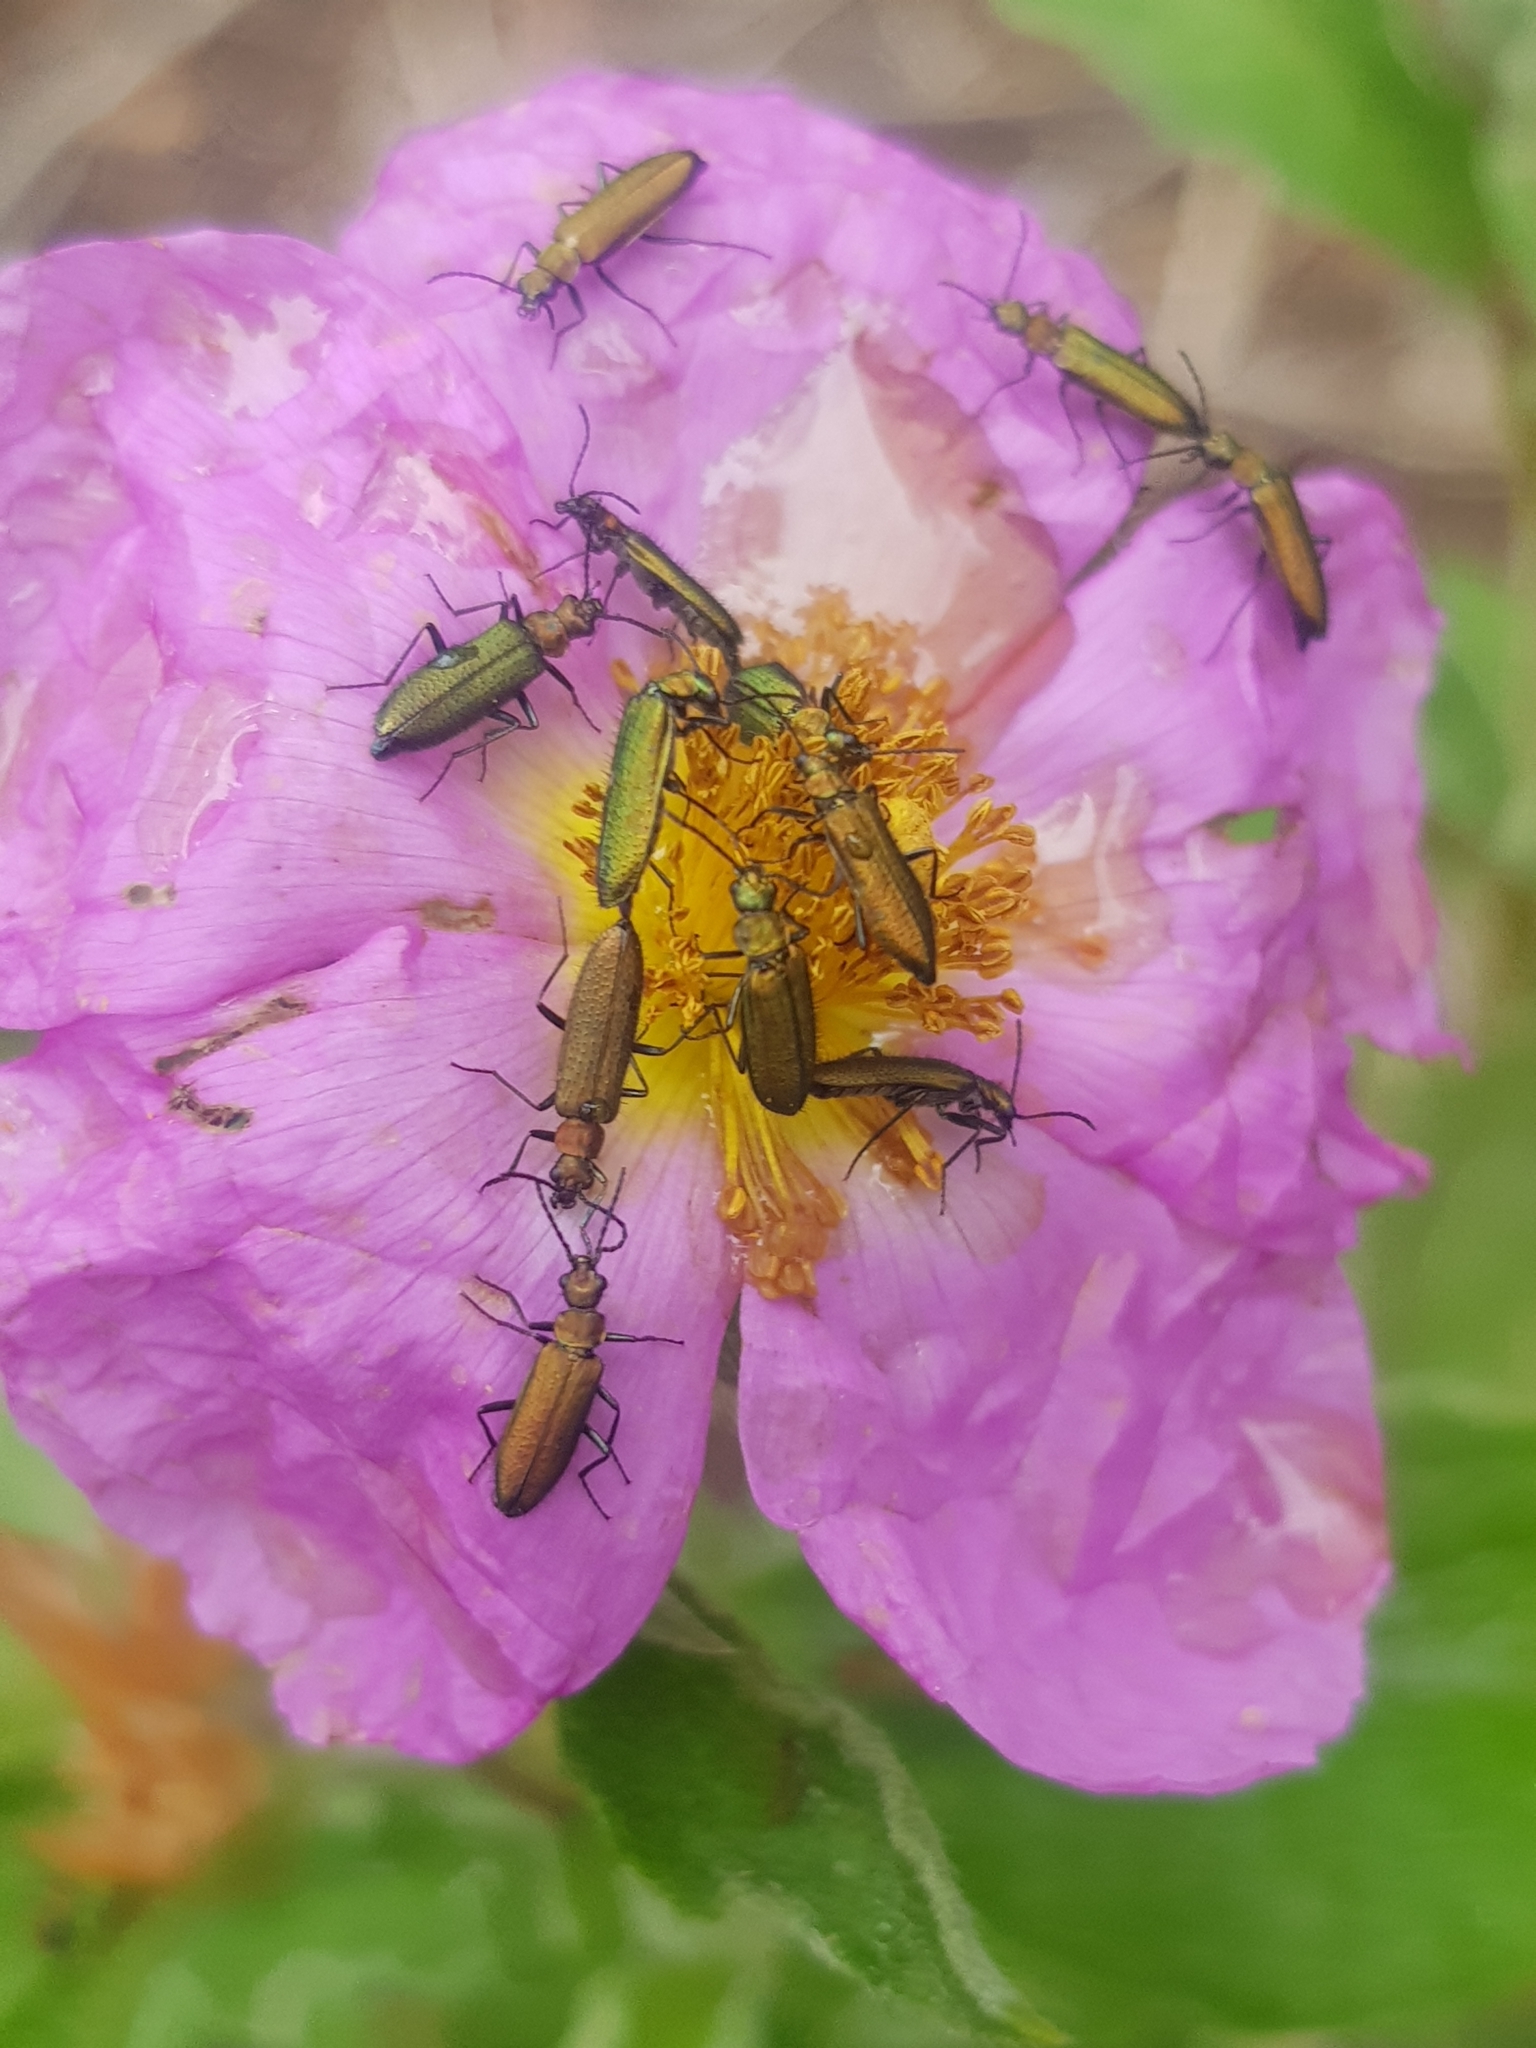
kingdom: Animalia
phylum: Arthropoda
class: Insecta
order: Coleoptera
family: Stenotrachelidae
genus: Stenotrachelus
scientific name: Stenotrachelus aeneus
